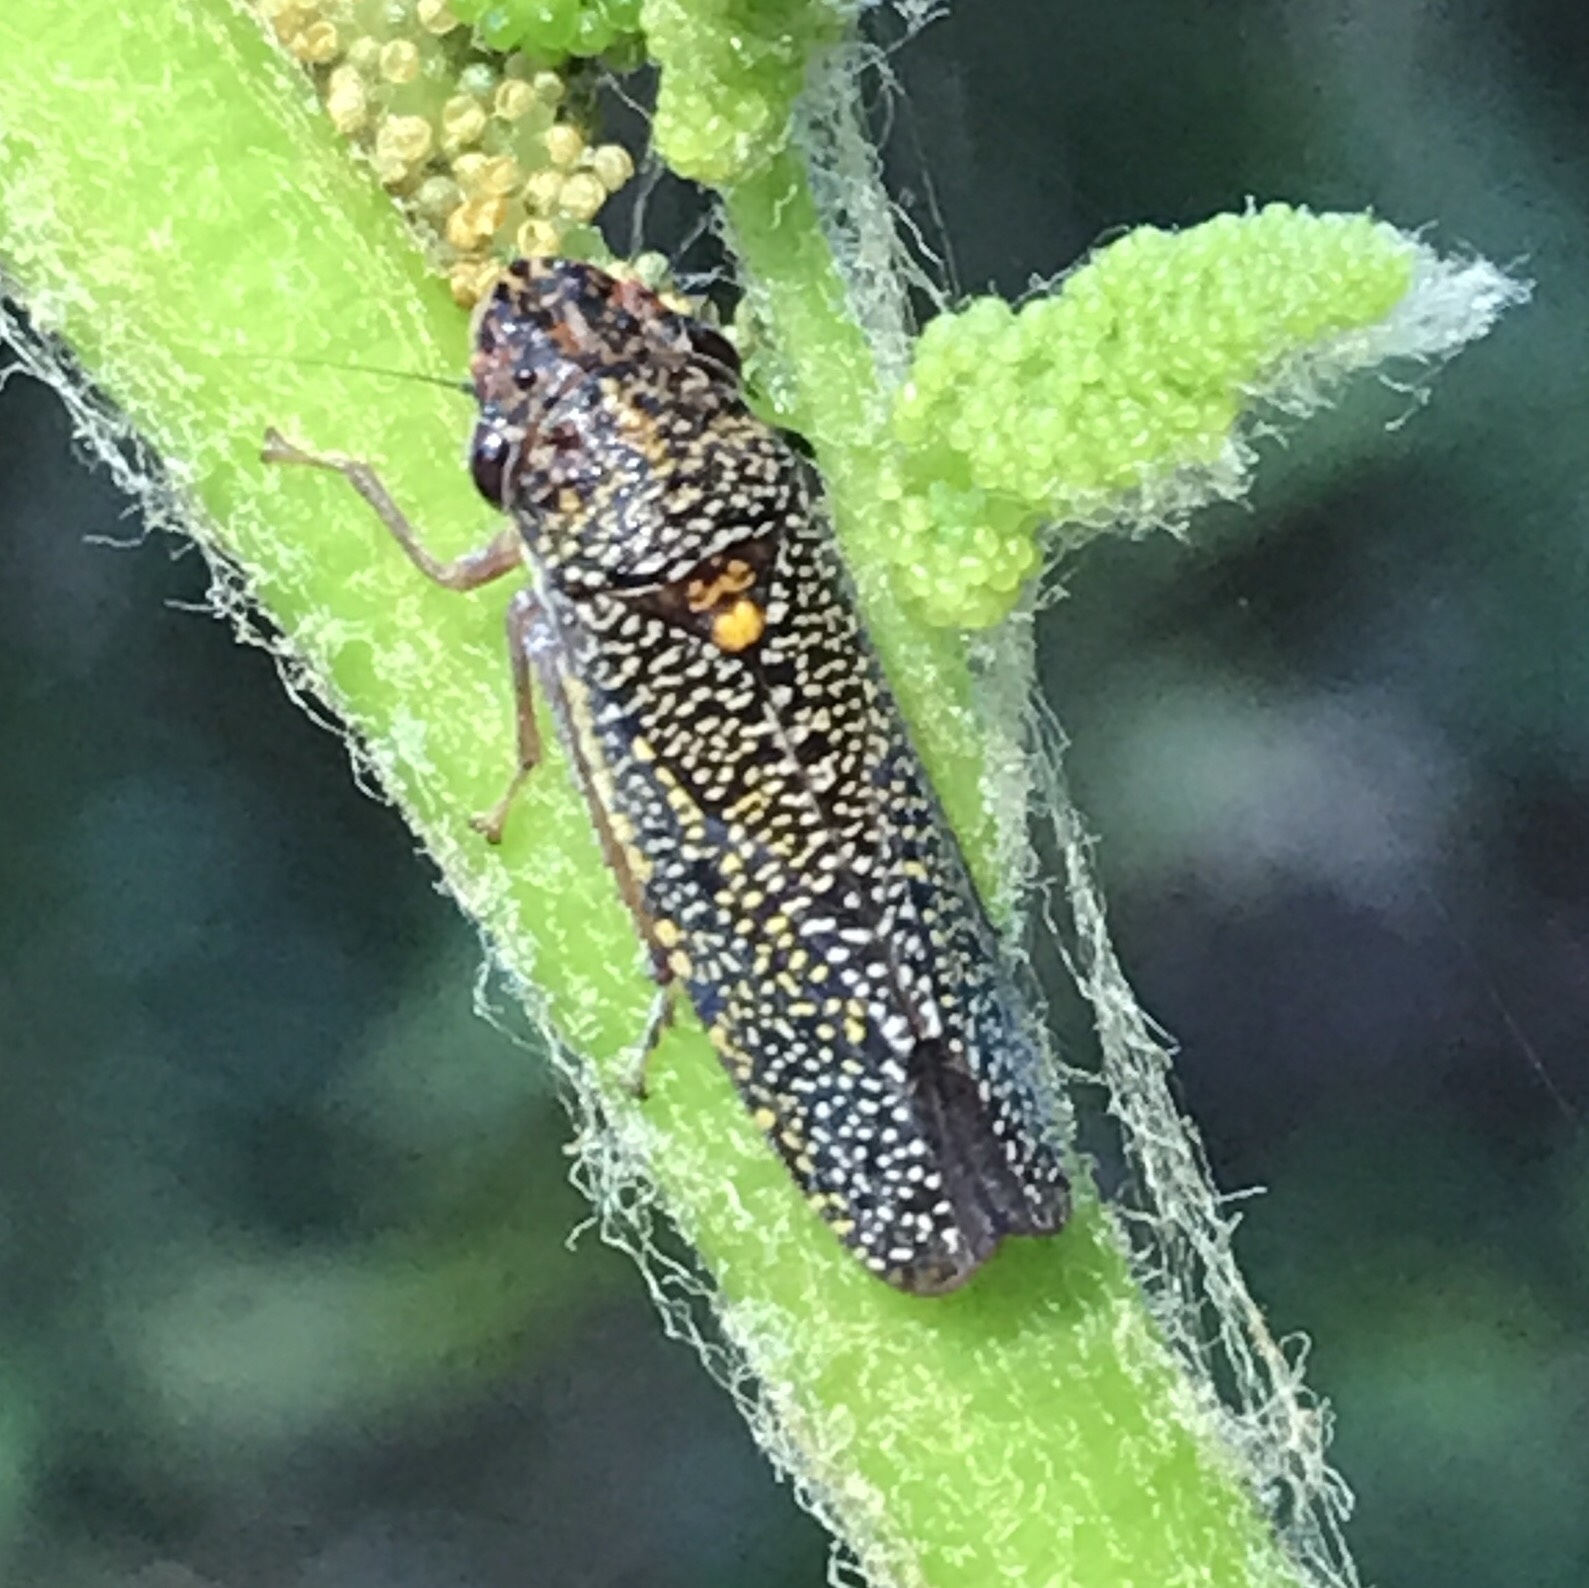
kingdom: Animalia
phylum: Arthropoda
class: Insecta
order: Hemiptera
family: Cicadellidae
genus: Paraulacizes
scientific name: Paraulacizes irrorata
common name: Speckled sharpshooter
